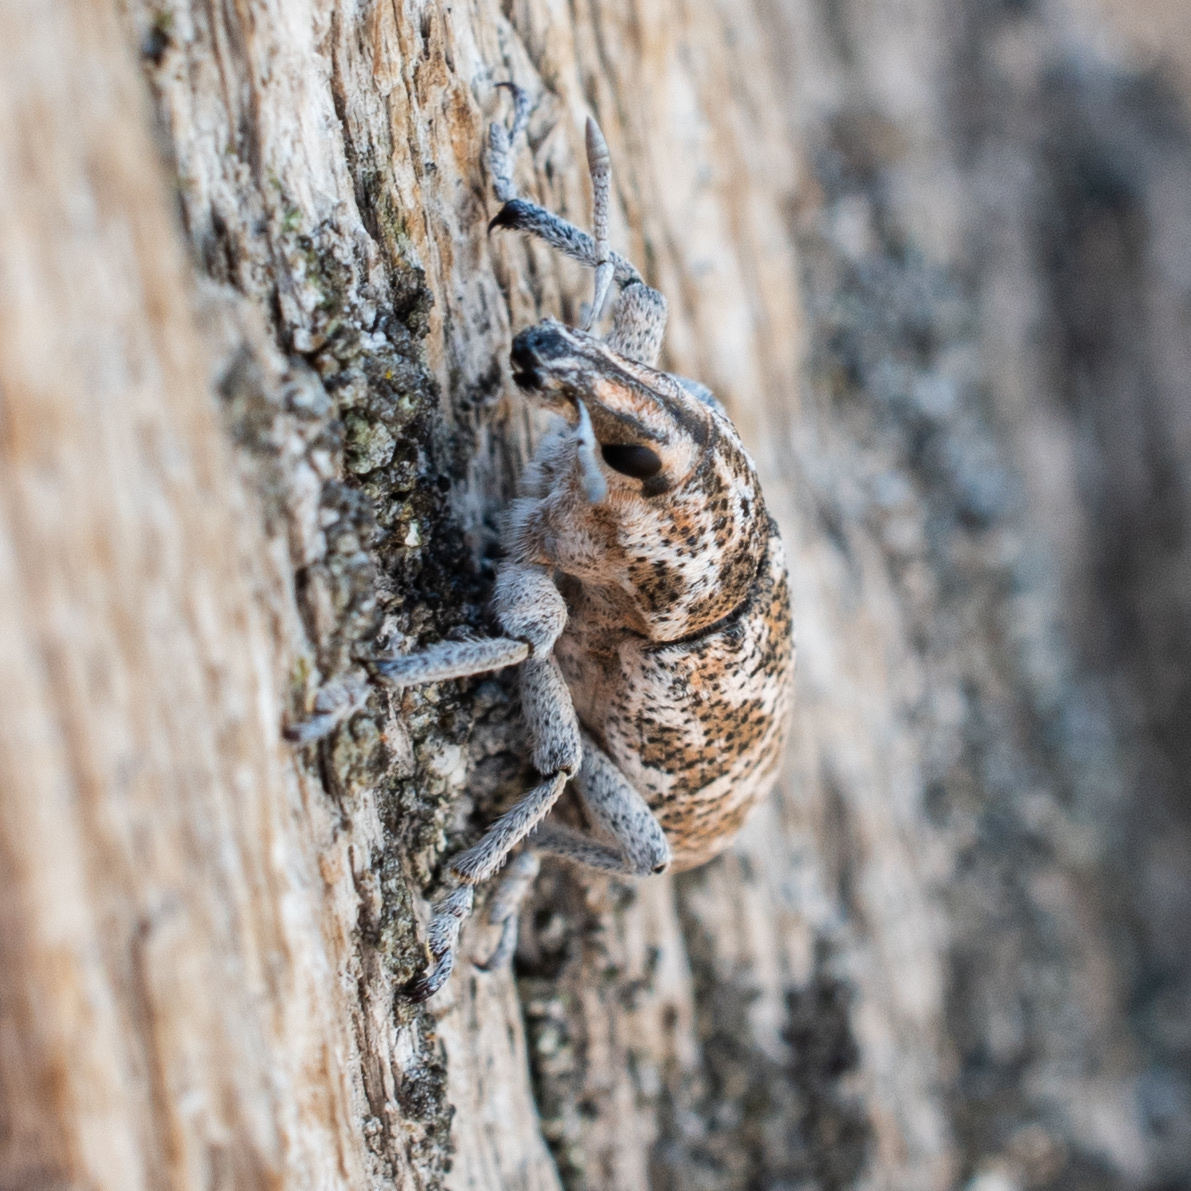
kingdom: Animalia
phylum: Arthropoda
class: Insecta
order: Coleoptera
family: Curculionidae
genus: Cleonus
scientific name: Cleonus achates
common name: Root weevil
